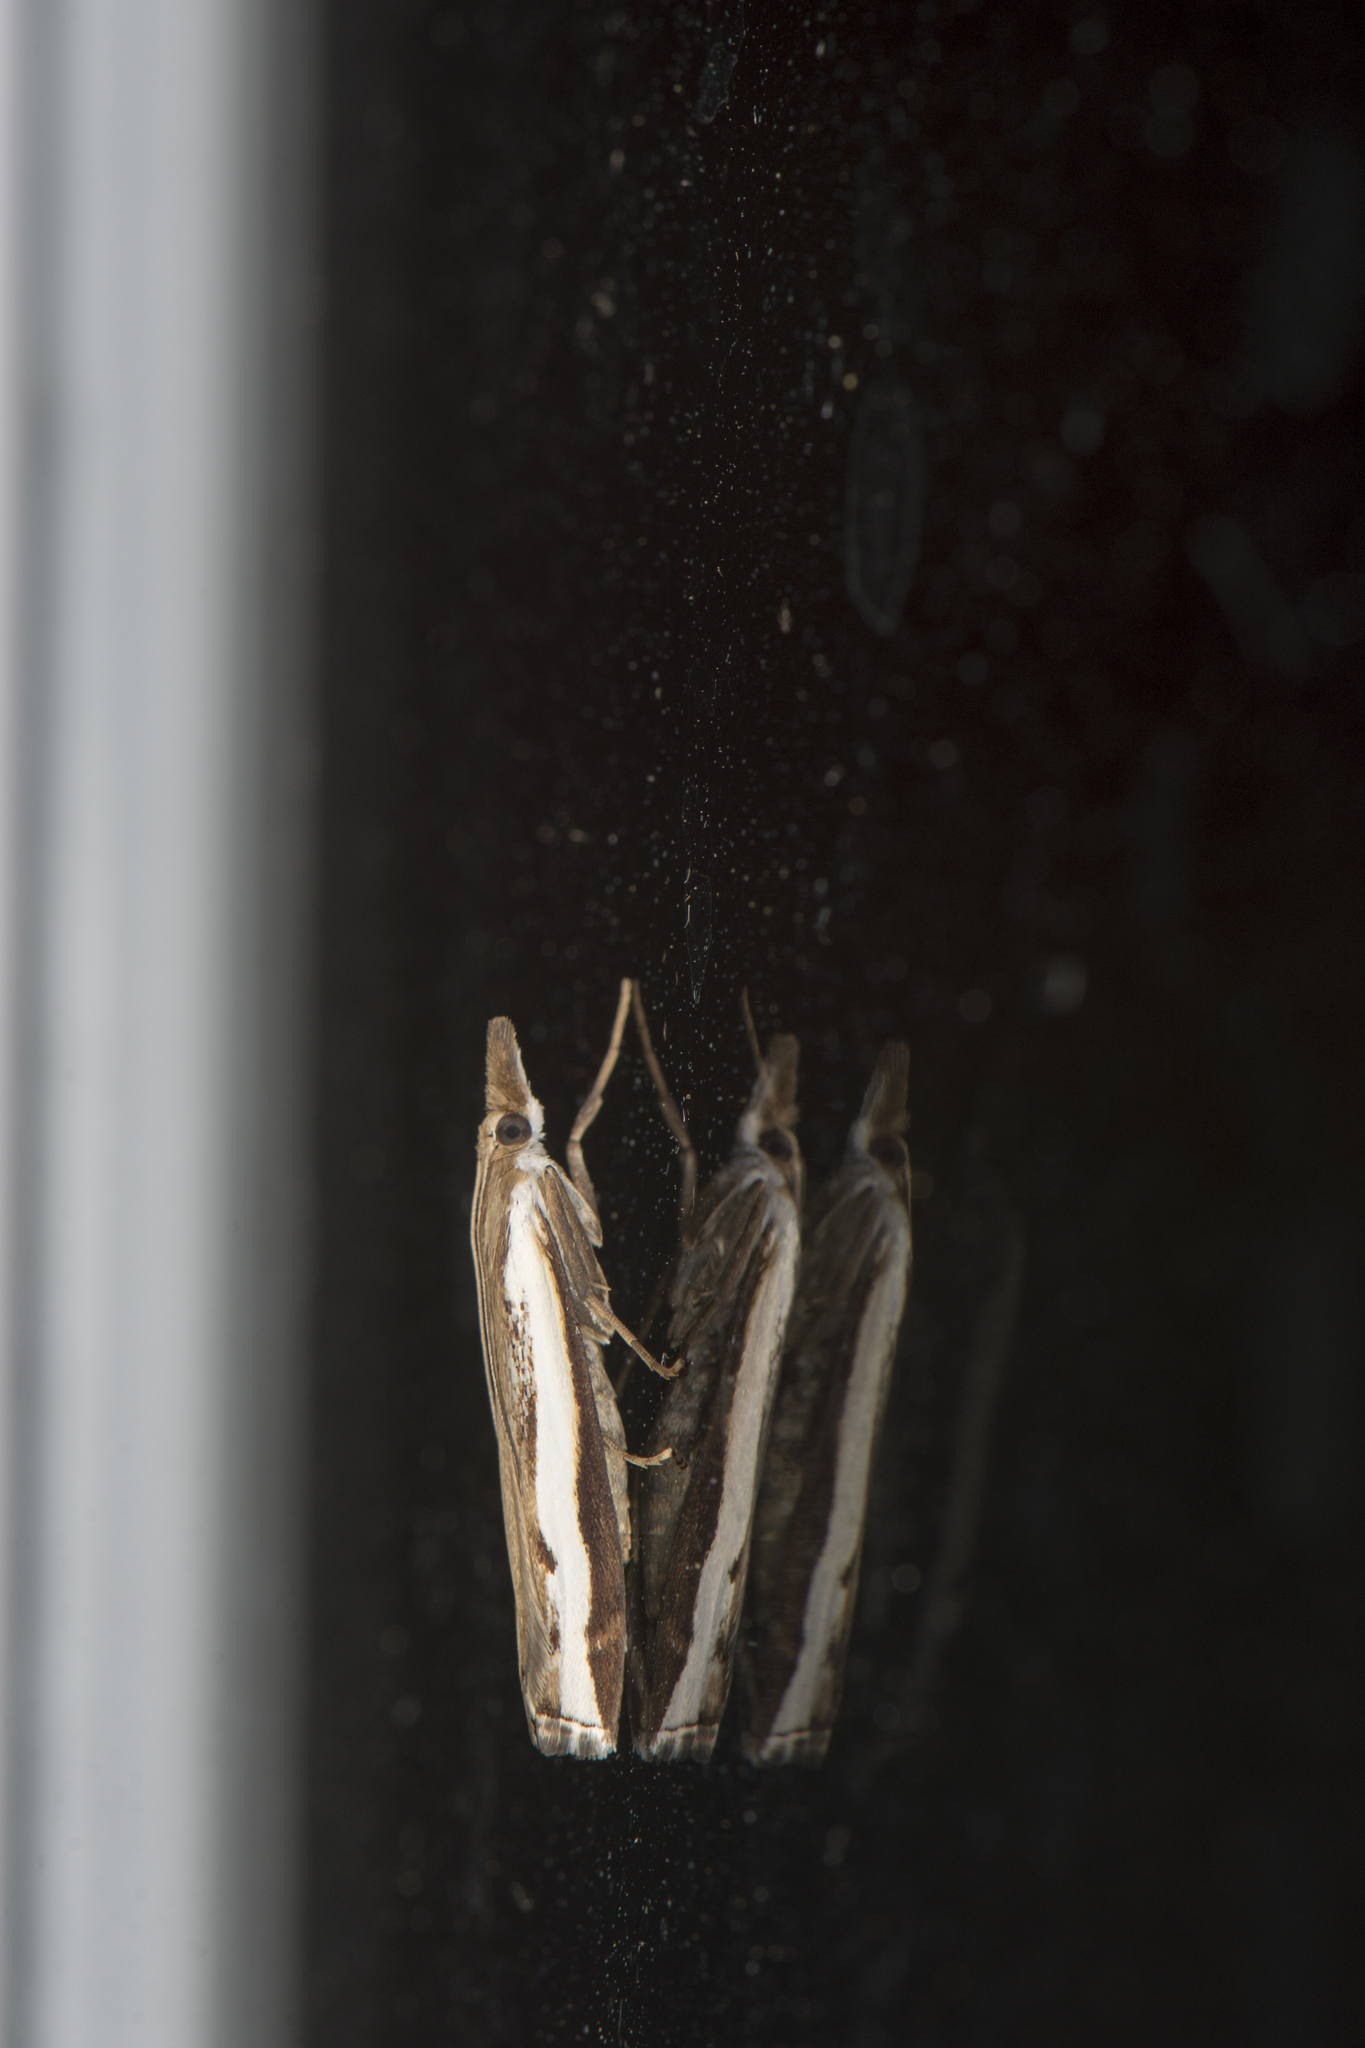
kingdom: Animalia
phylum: Arthropoda
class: Insecta
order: Lepidoptera
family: Crambidae
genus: Orocrambus
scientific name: Orocrambus flexuosellus
